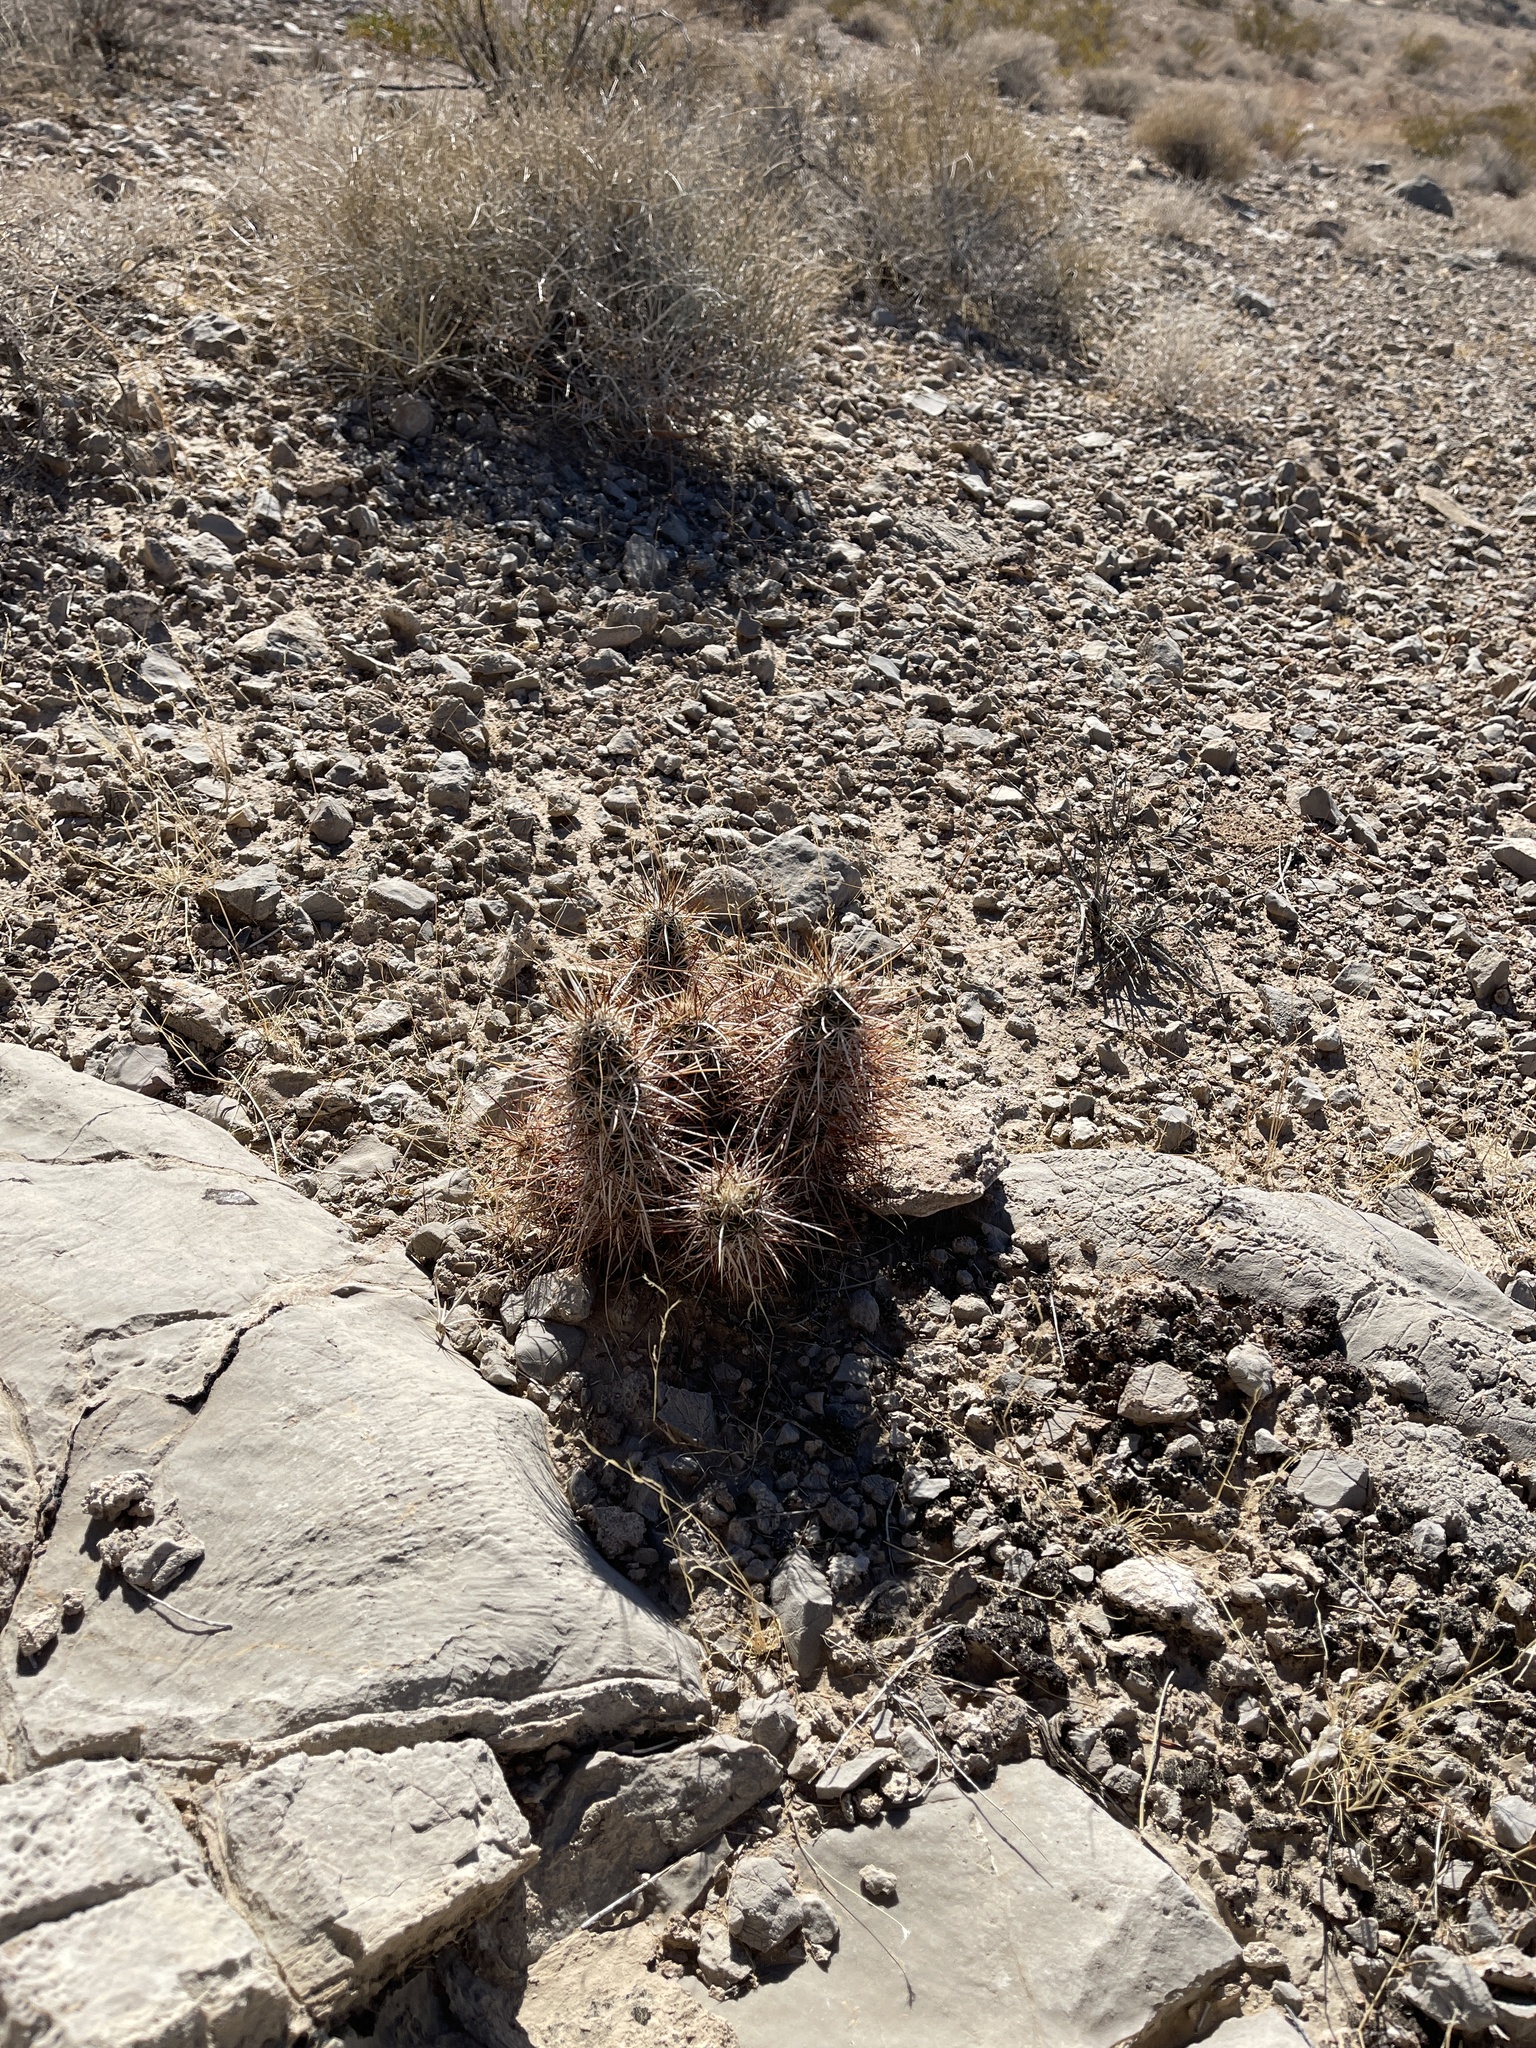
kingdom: Plantae
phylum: Tracheophyta
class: Magnoliopsida
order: Caryophyllales
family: Cactaceae
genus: Echinocereus
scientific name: Echinocereus engelmannii
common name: Engelmann's hedgehog cactus
